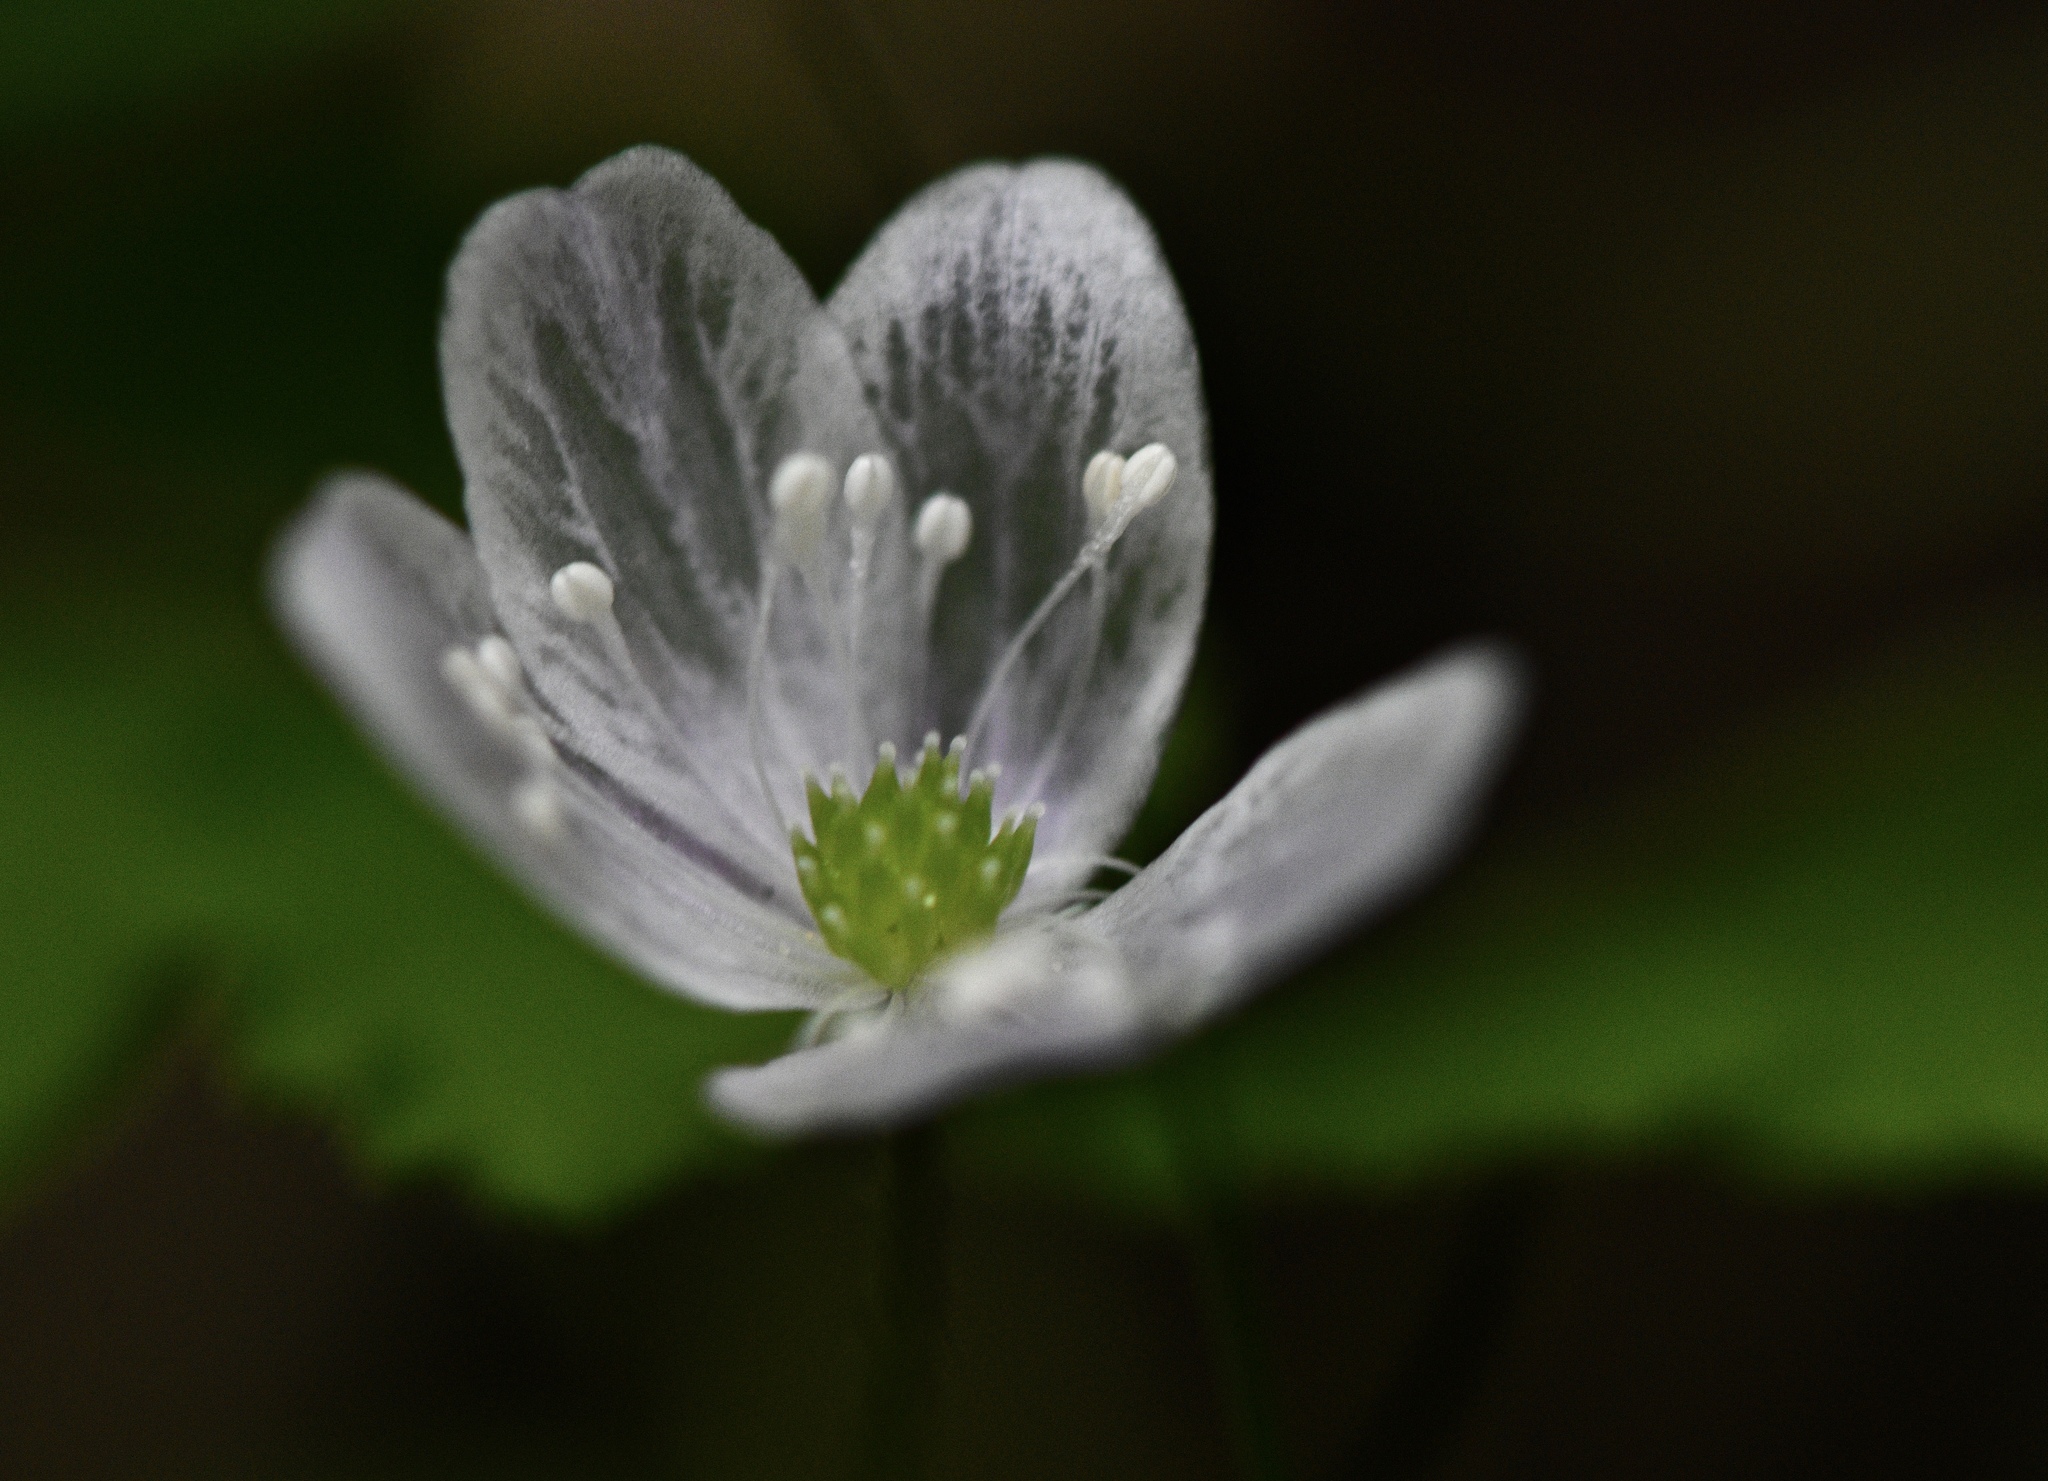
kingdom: Plantae
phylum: Tracheophyta
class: Magnoliopsida
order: Ranunculales
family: Ranunculaceae
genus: Anemone
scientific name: Anemone
